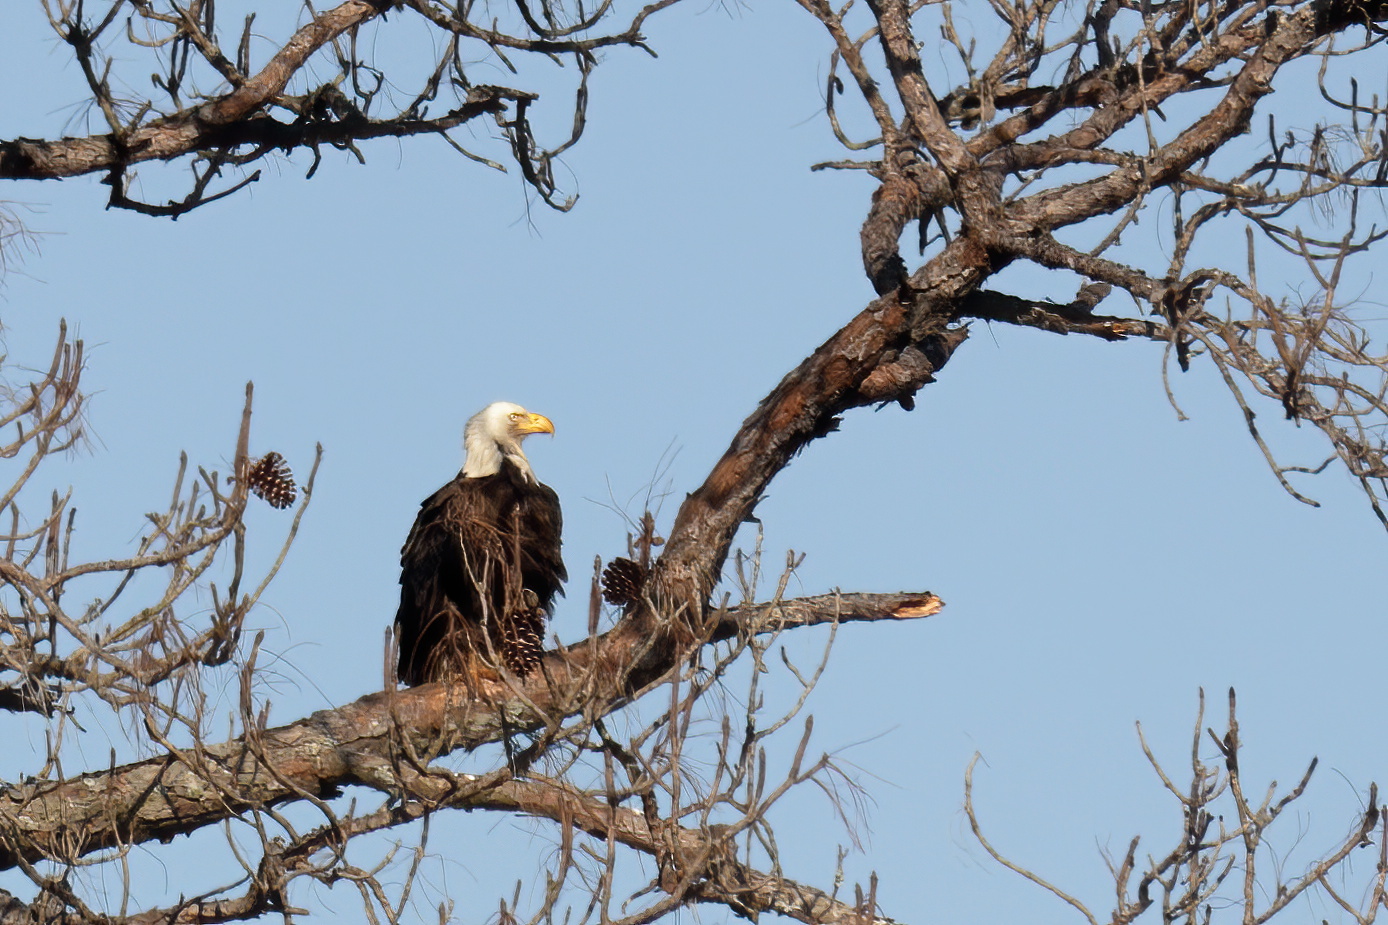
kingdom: Animalia
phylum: Chordata
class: Aves
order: Accipitriformes
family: Accipitridae
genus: Haliaeetus
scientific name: Haliaeetus leucocephalus
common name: Bald eagle
